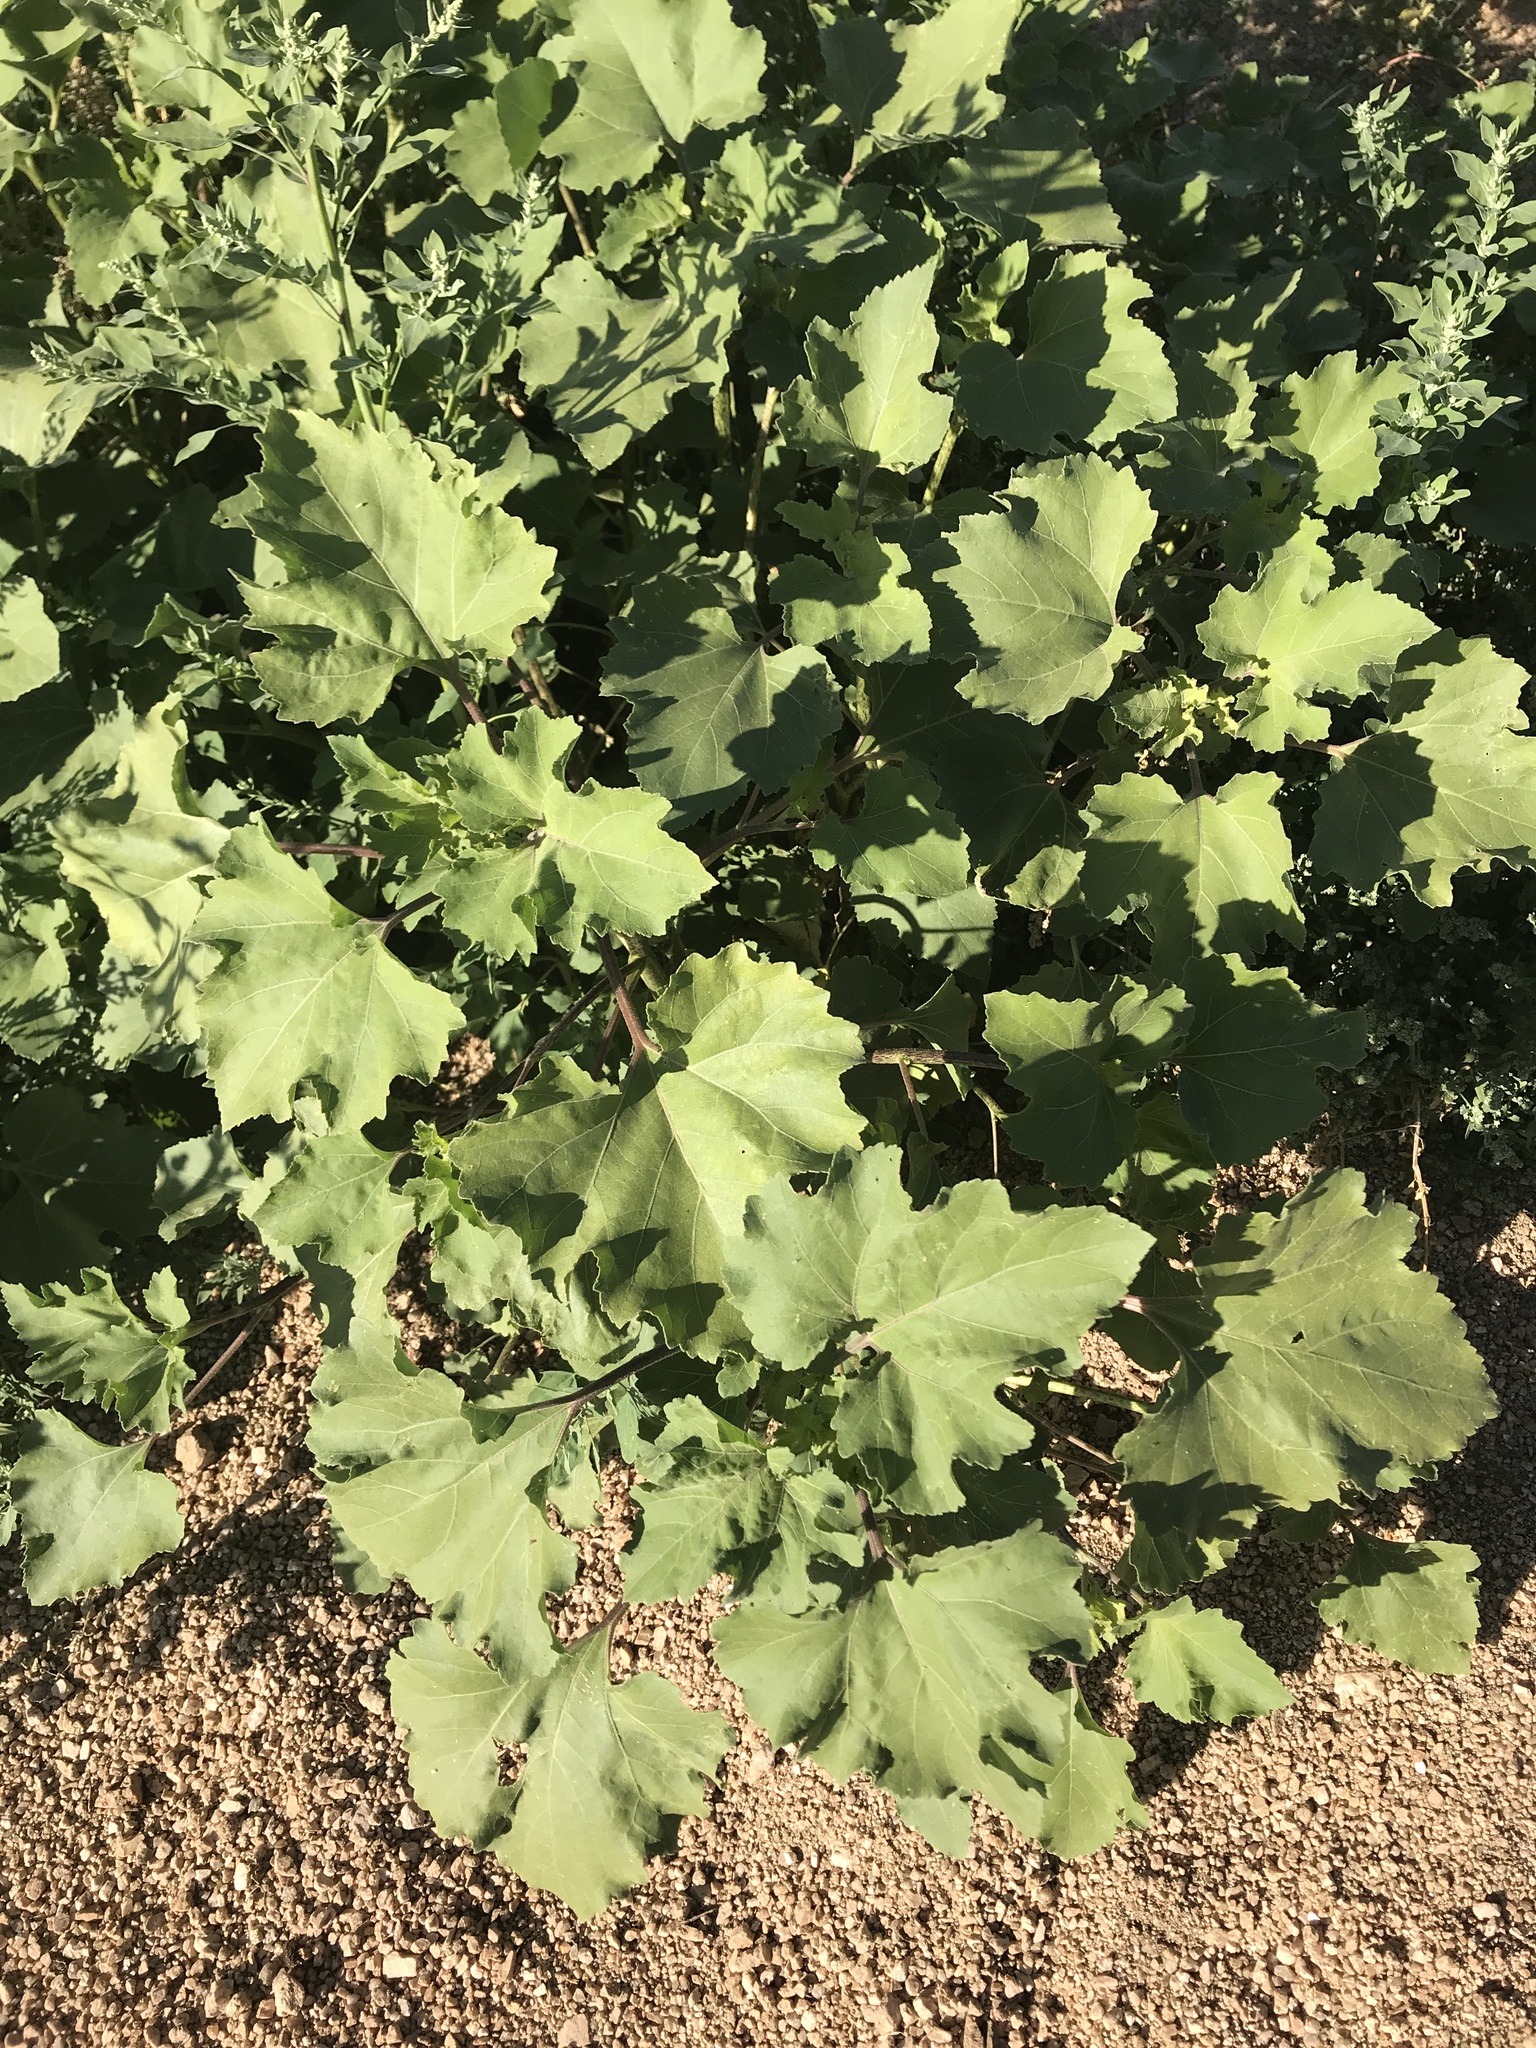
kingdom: Plantae
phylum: Tracheophyta
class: Magnoliopsida
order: Asterales
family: Asteraceae
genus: Xanthium
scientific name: Xanthium strumarium
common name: Rough cocklebur
